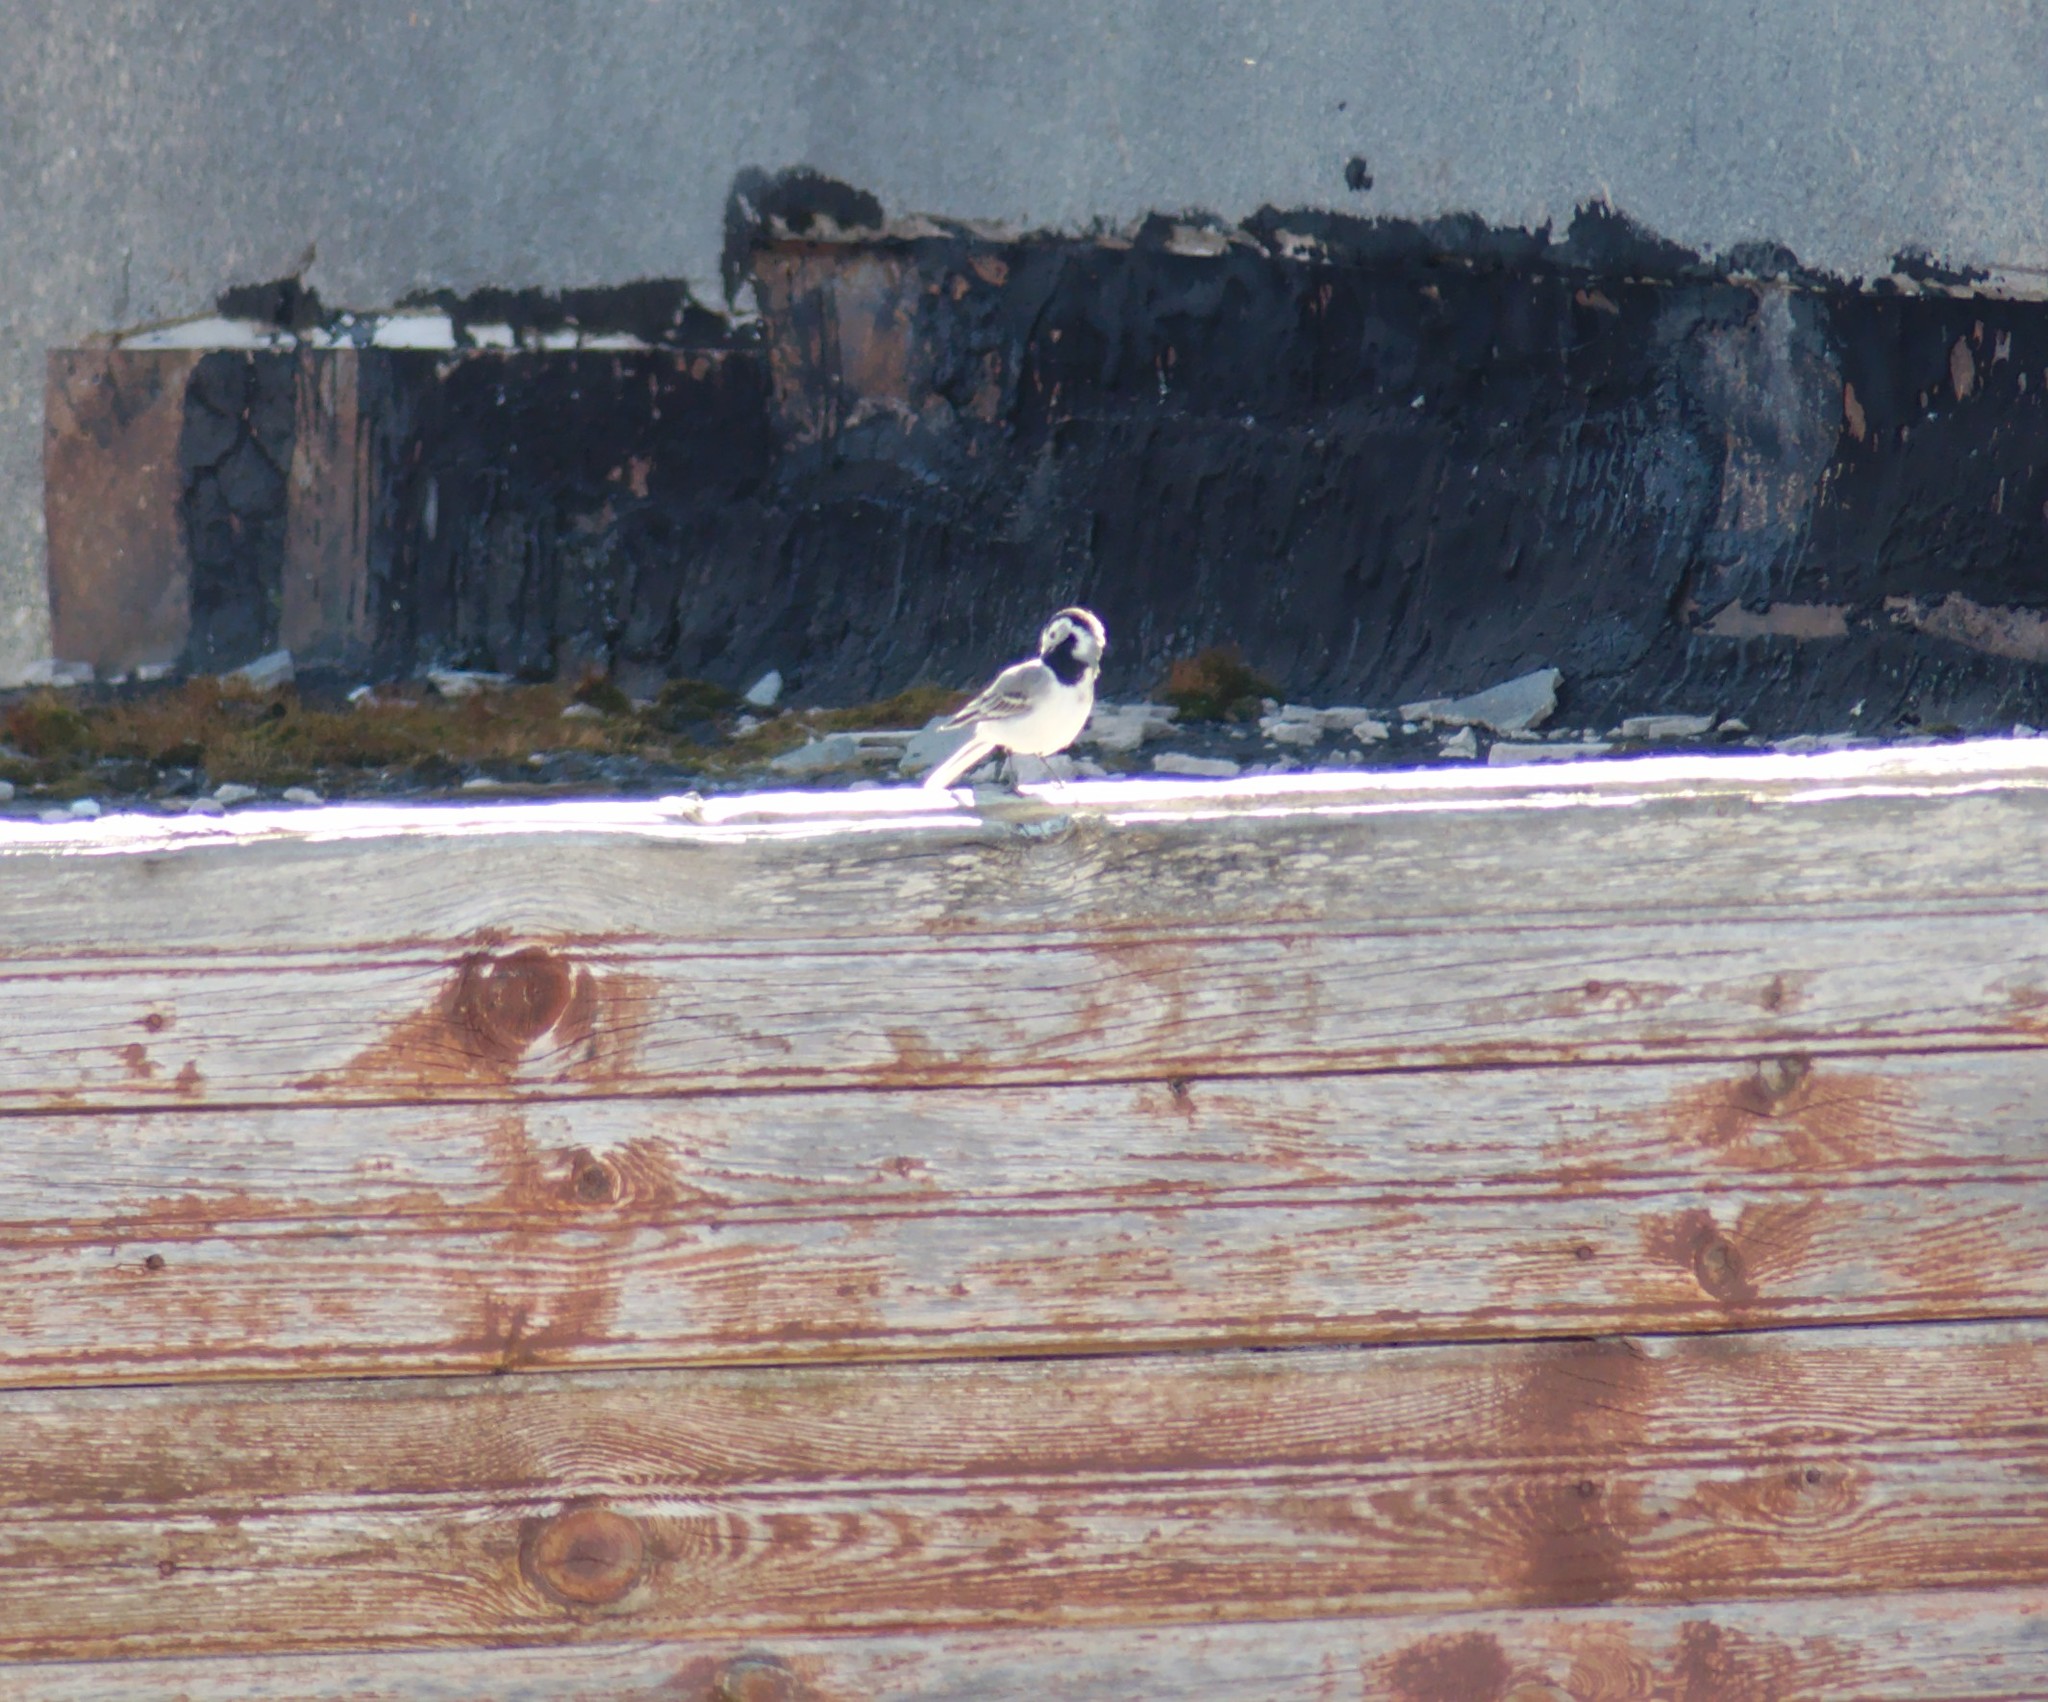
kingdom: Animalia
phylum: Chordata
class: Aves
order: Passeriformes
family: Motacillidae
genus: Motacilla
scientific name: Motacilla alba
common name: White wagtail
